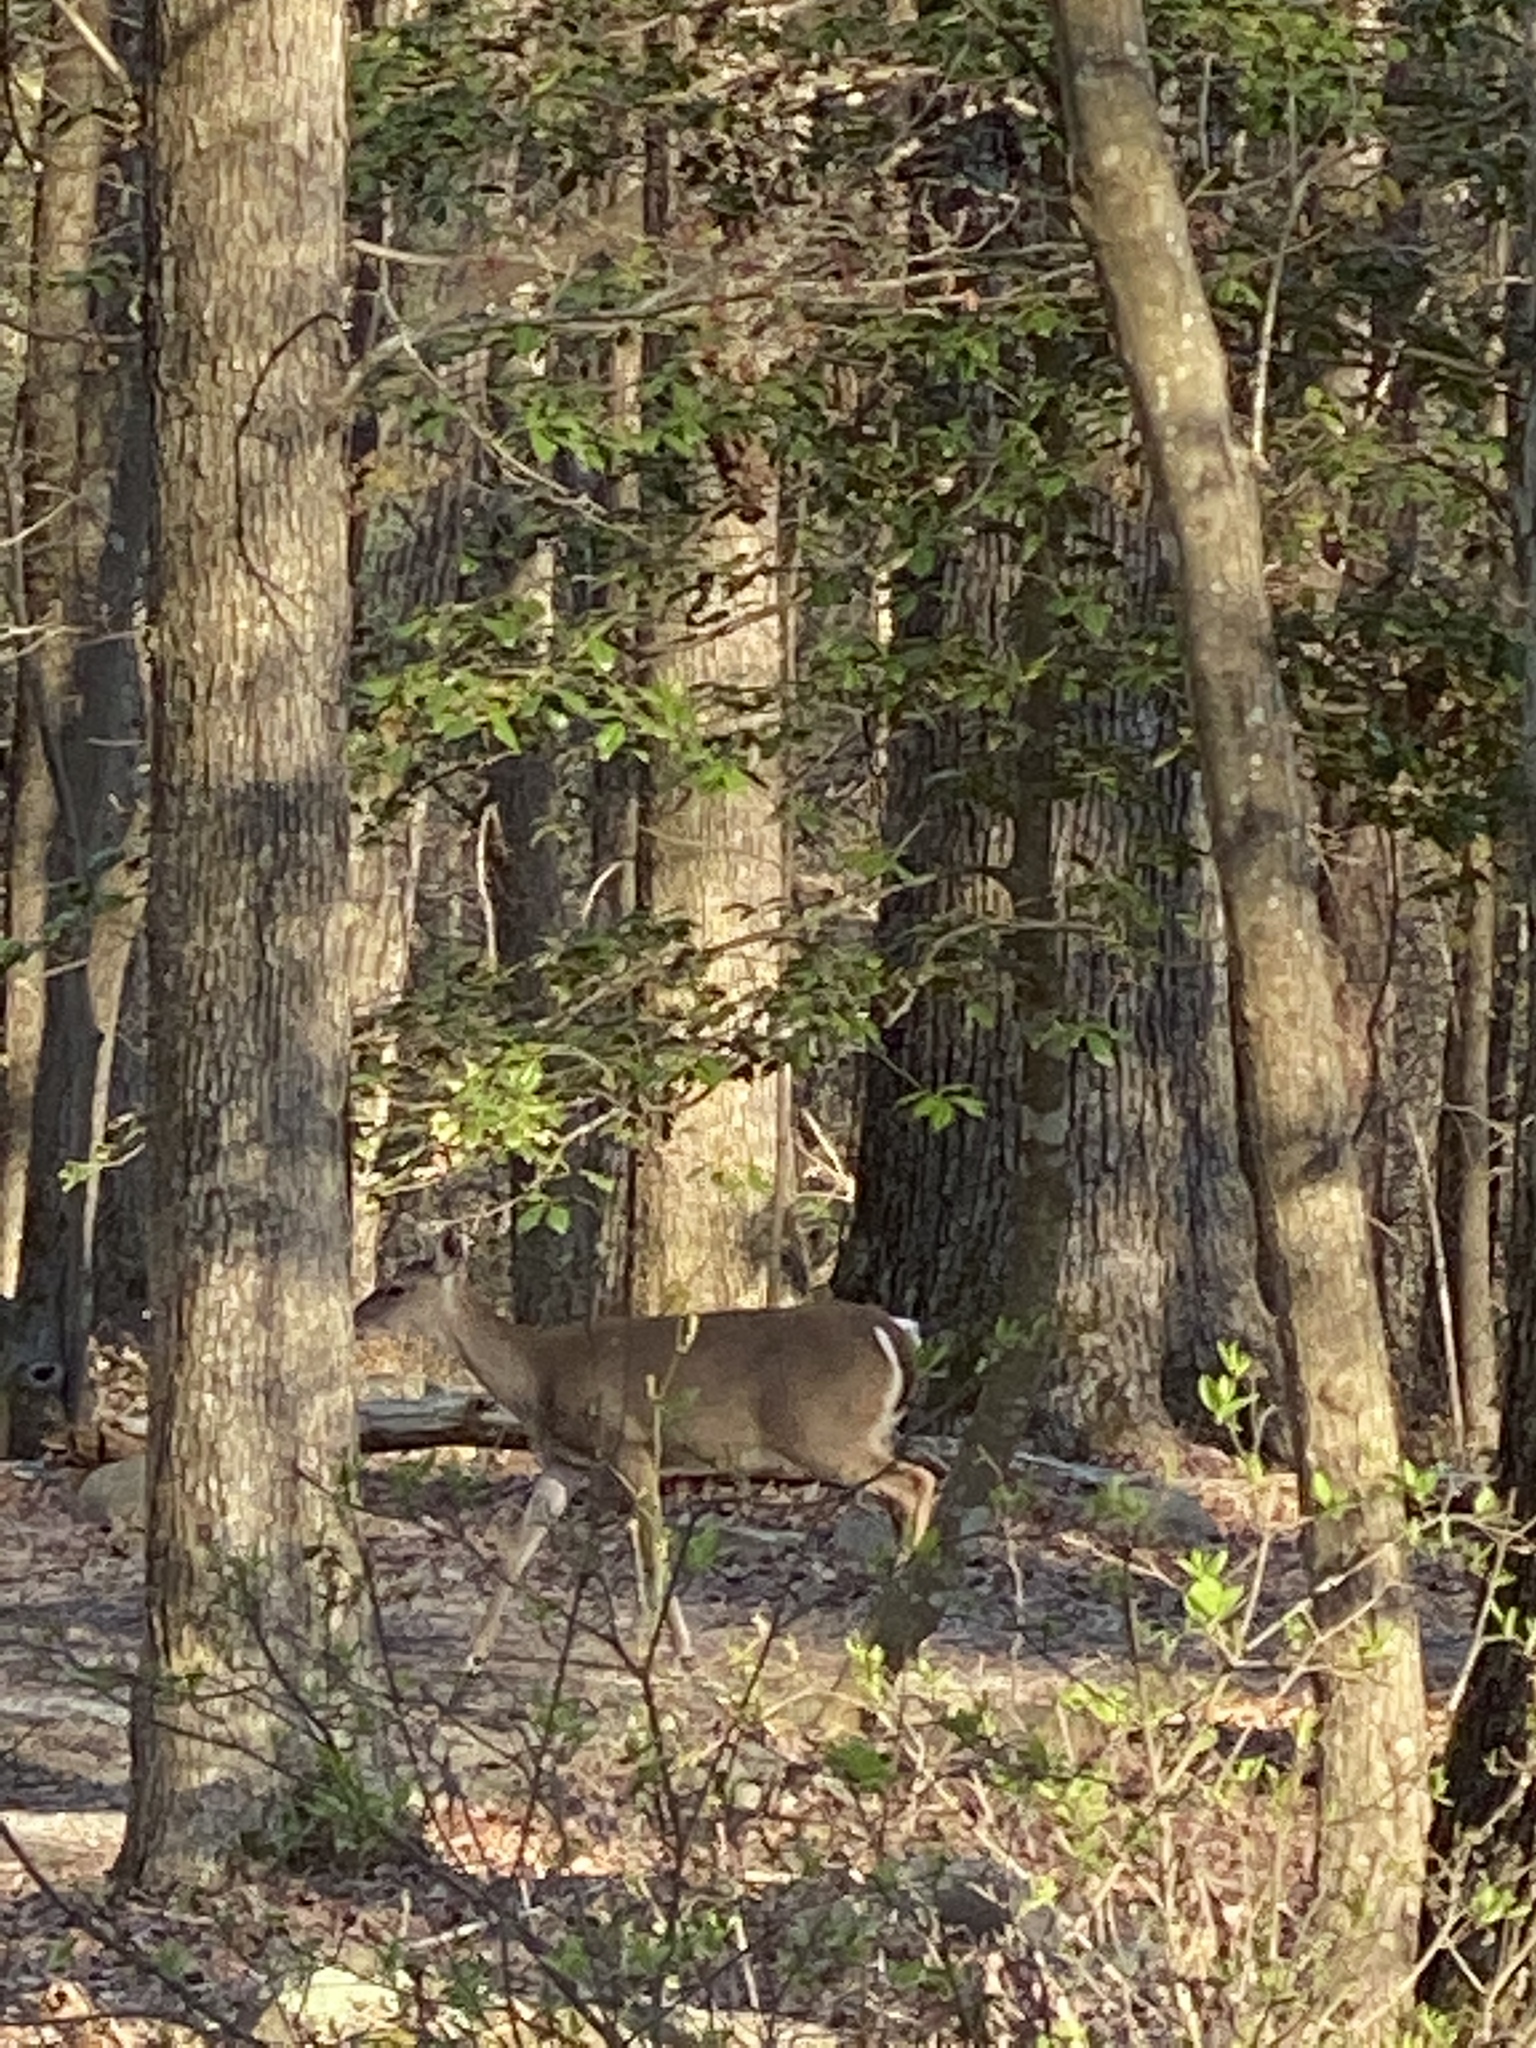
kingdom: Animalia
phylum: Chordata
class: Mammalia
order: Artiodactyla
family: Cervidae
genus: Odocoileus
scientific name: Odocoileus virginianus
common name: White-tailed deer
